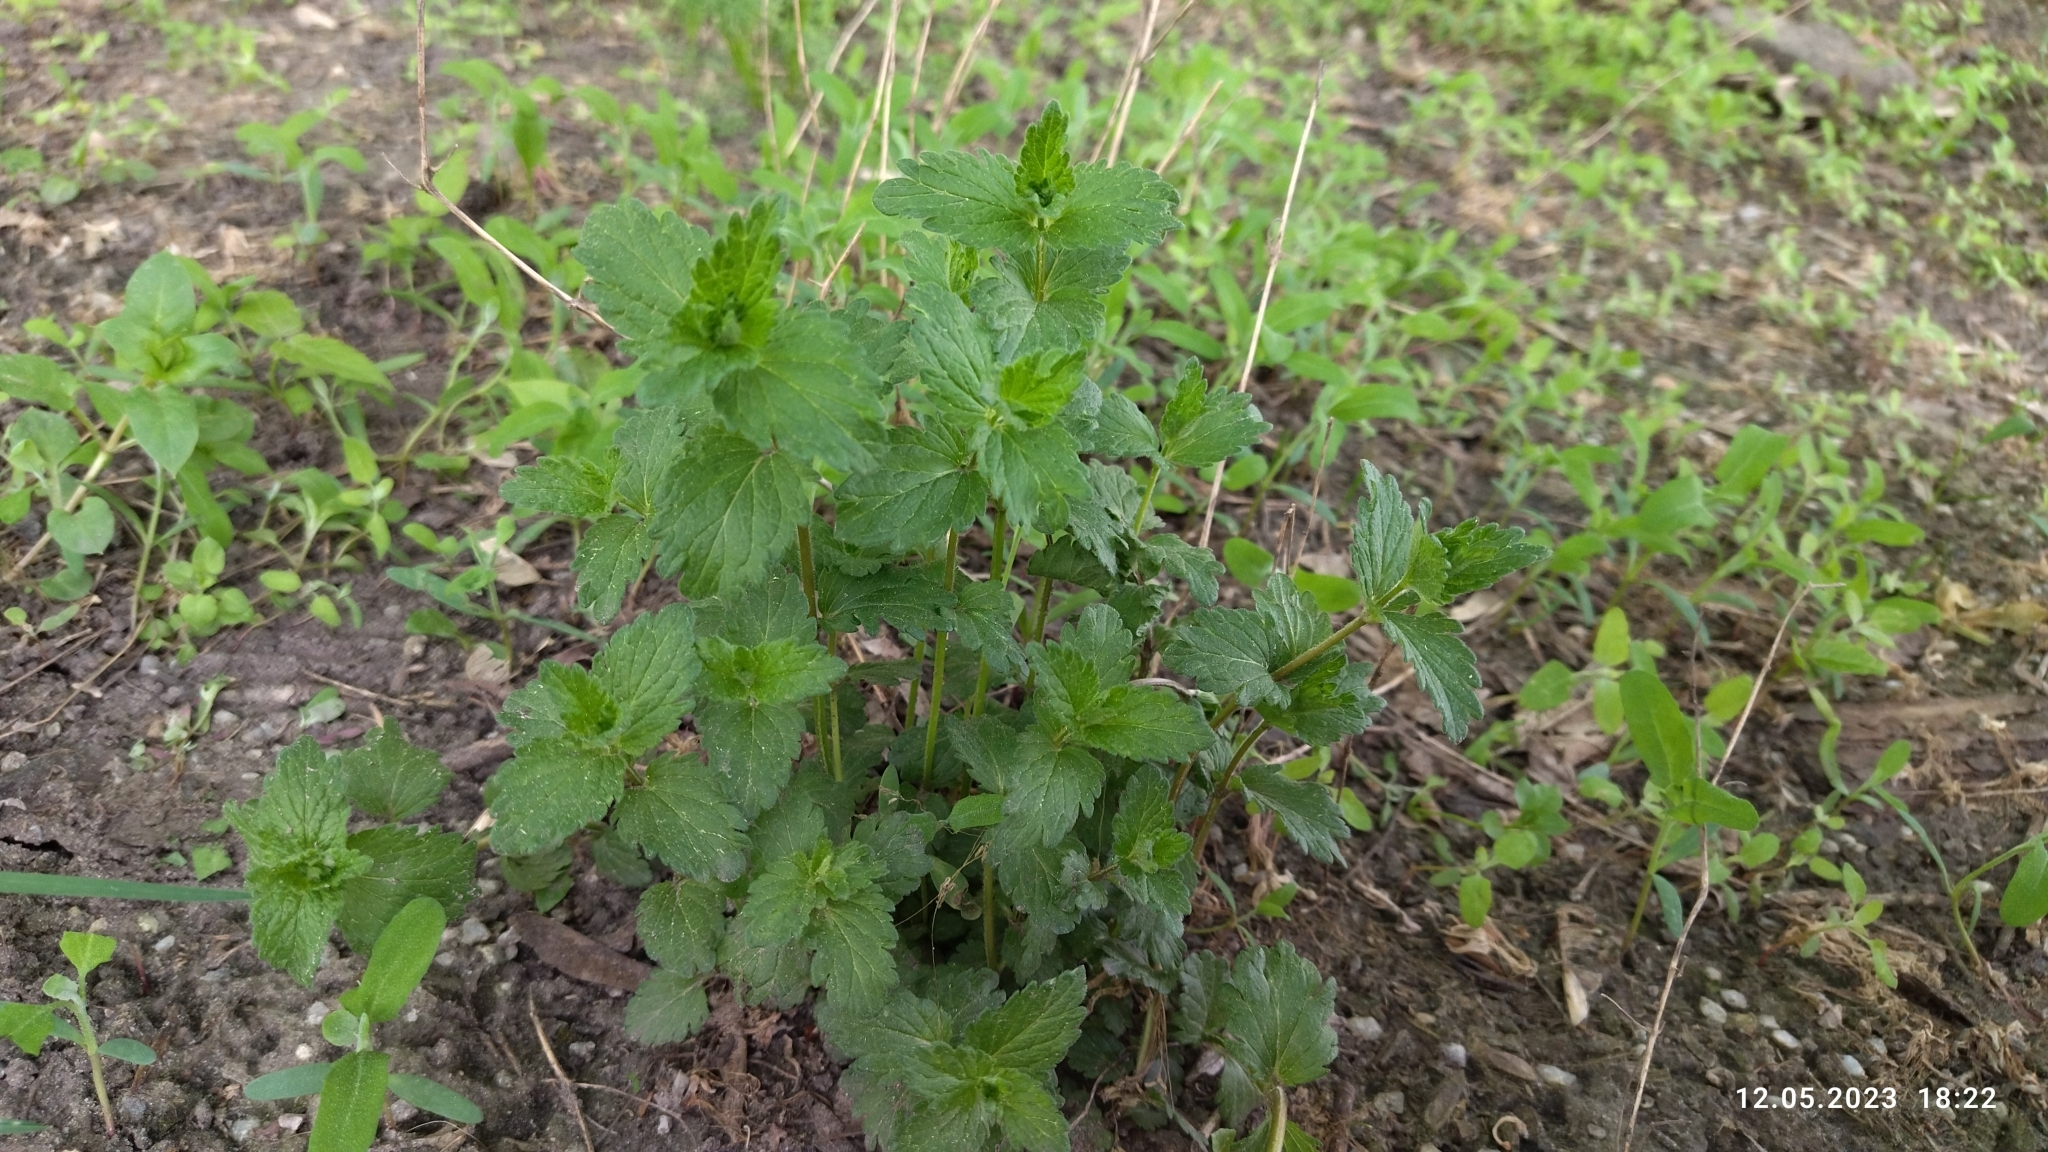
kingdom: Plantae
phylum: Tracheophyta
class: Magnoliopsida
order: Lamiales
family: Plantaginaceae
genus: Veronica
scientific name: Veronica chamaedrys
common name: Germander speedwell
